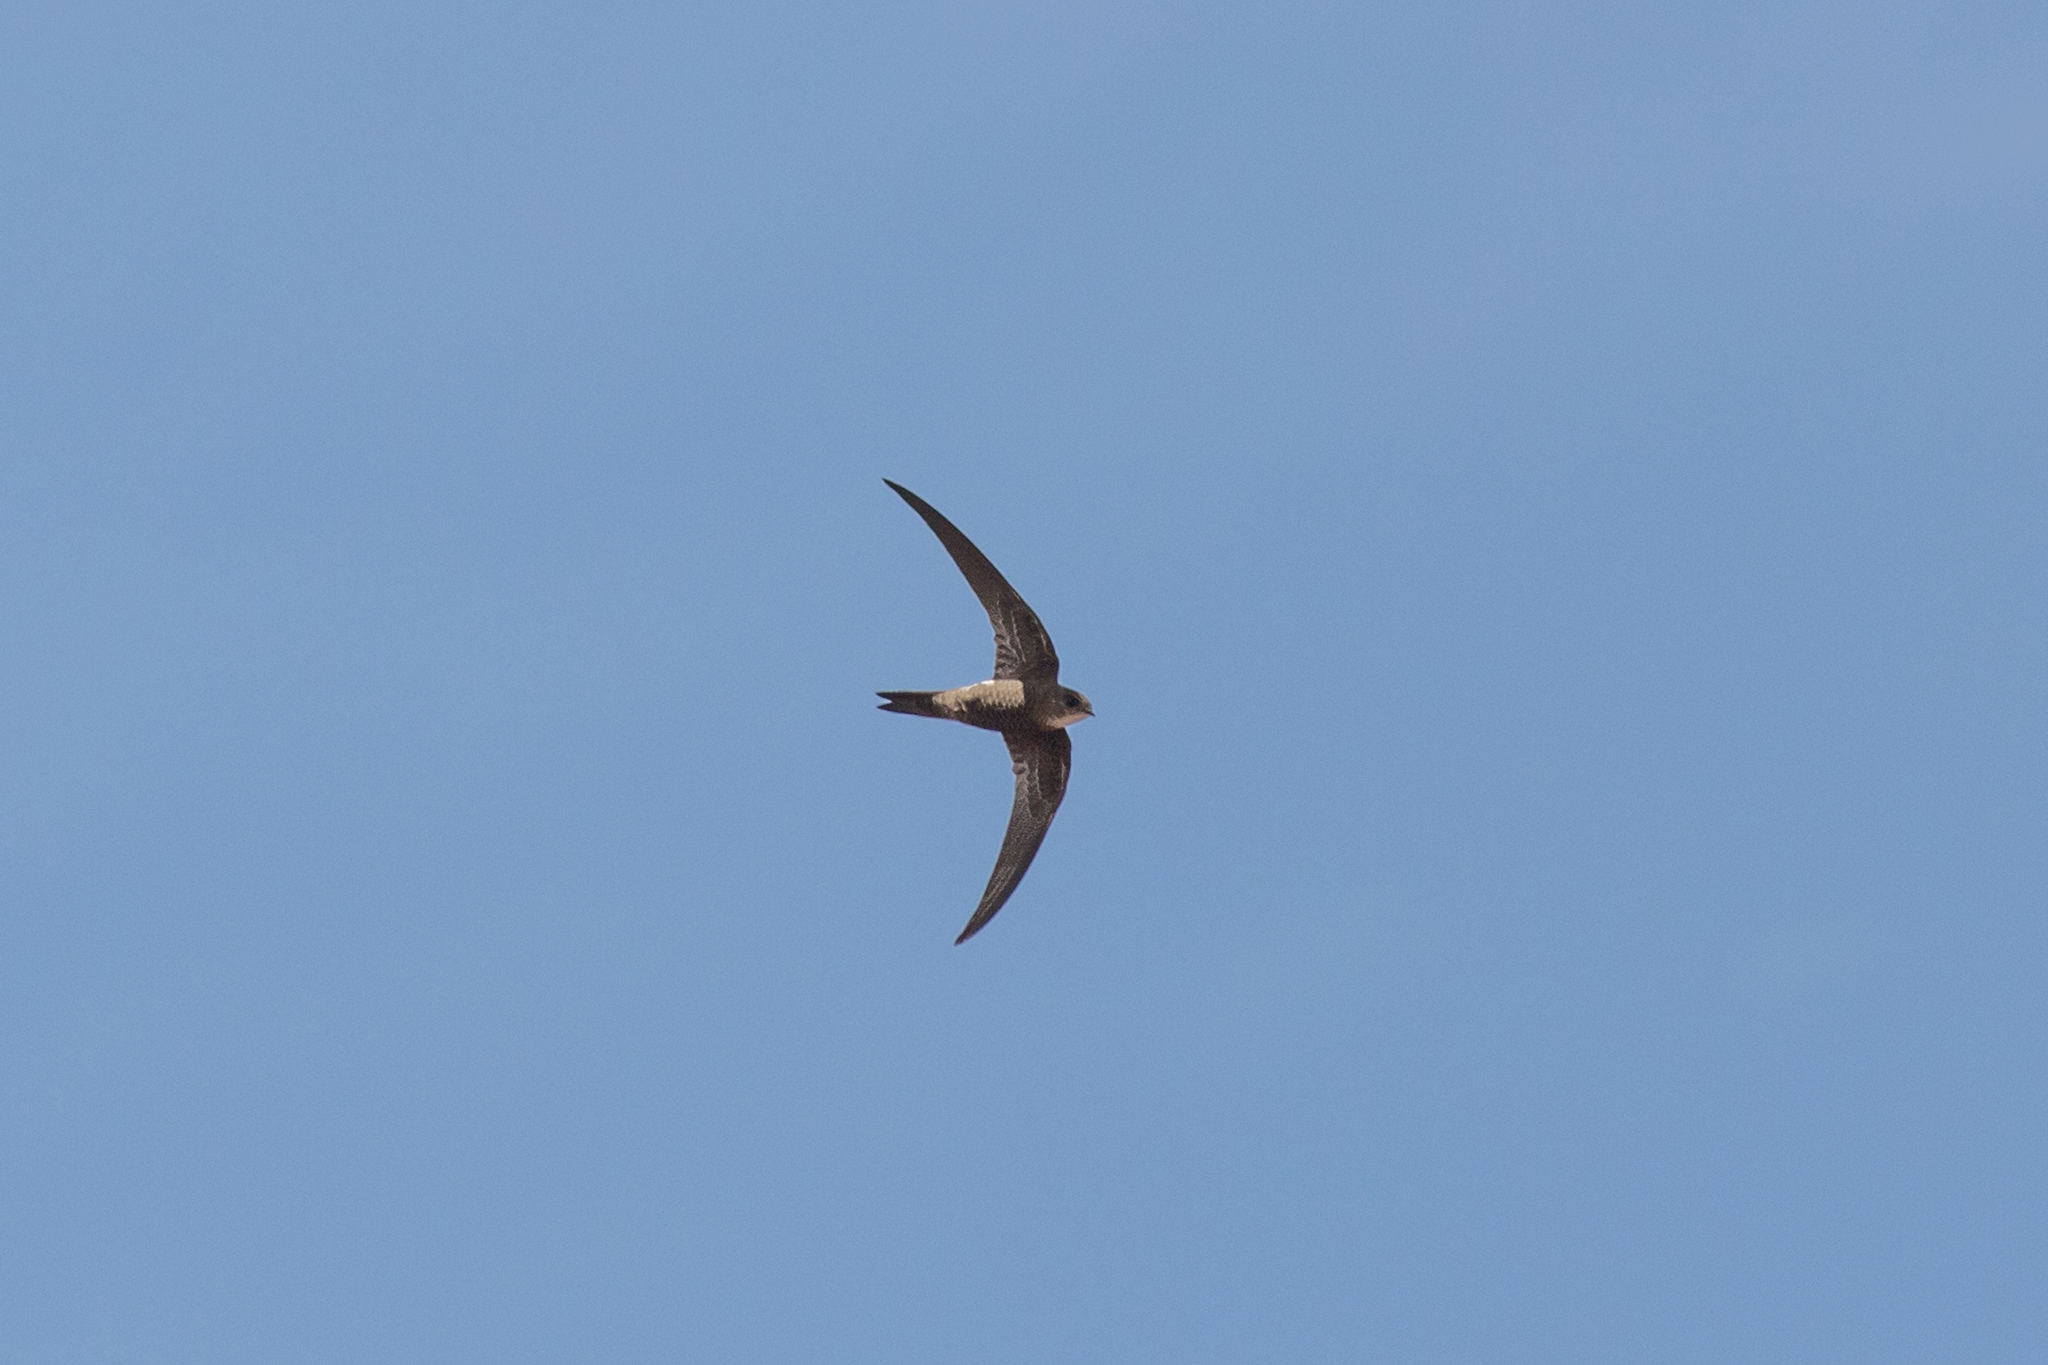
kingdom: Animalia
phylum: Chordata
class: Aves
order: Apodiformes
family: Apodidae
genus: Apus
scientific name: Apus pacificus
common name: Pacific swift
